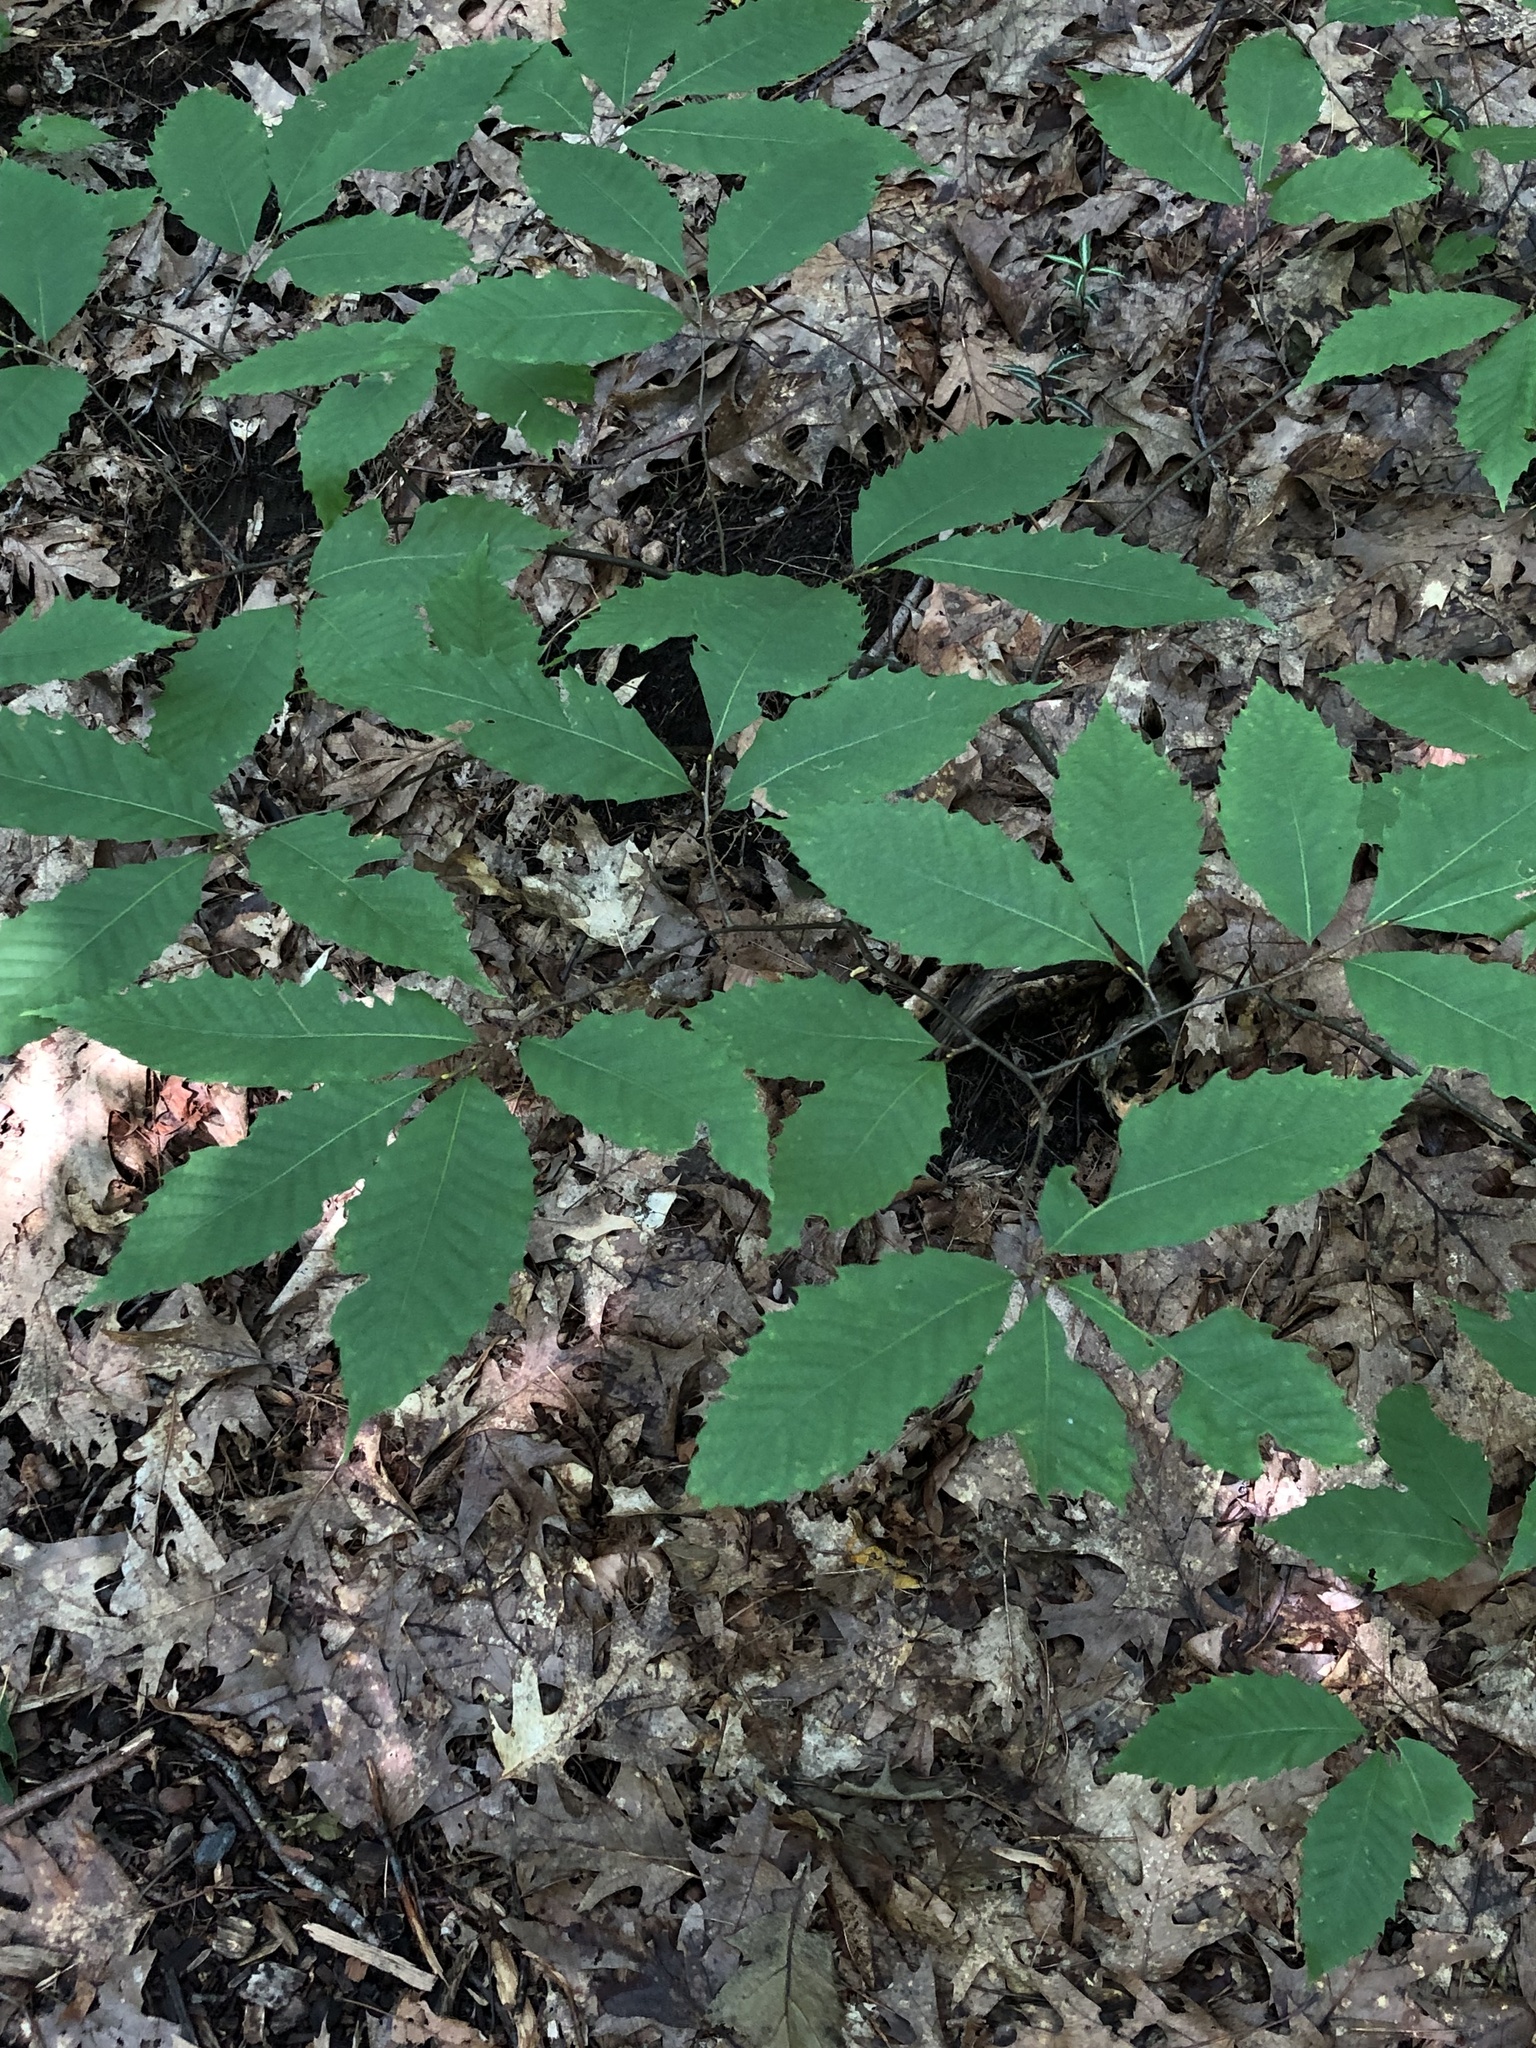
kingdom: Plantae
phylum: Tracheophyta
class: Magnoliopsida
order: Fagales
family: Fagaceae
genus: Castanea
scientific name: Castanea dentata
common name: American chestnut
